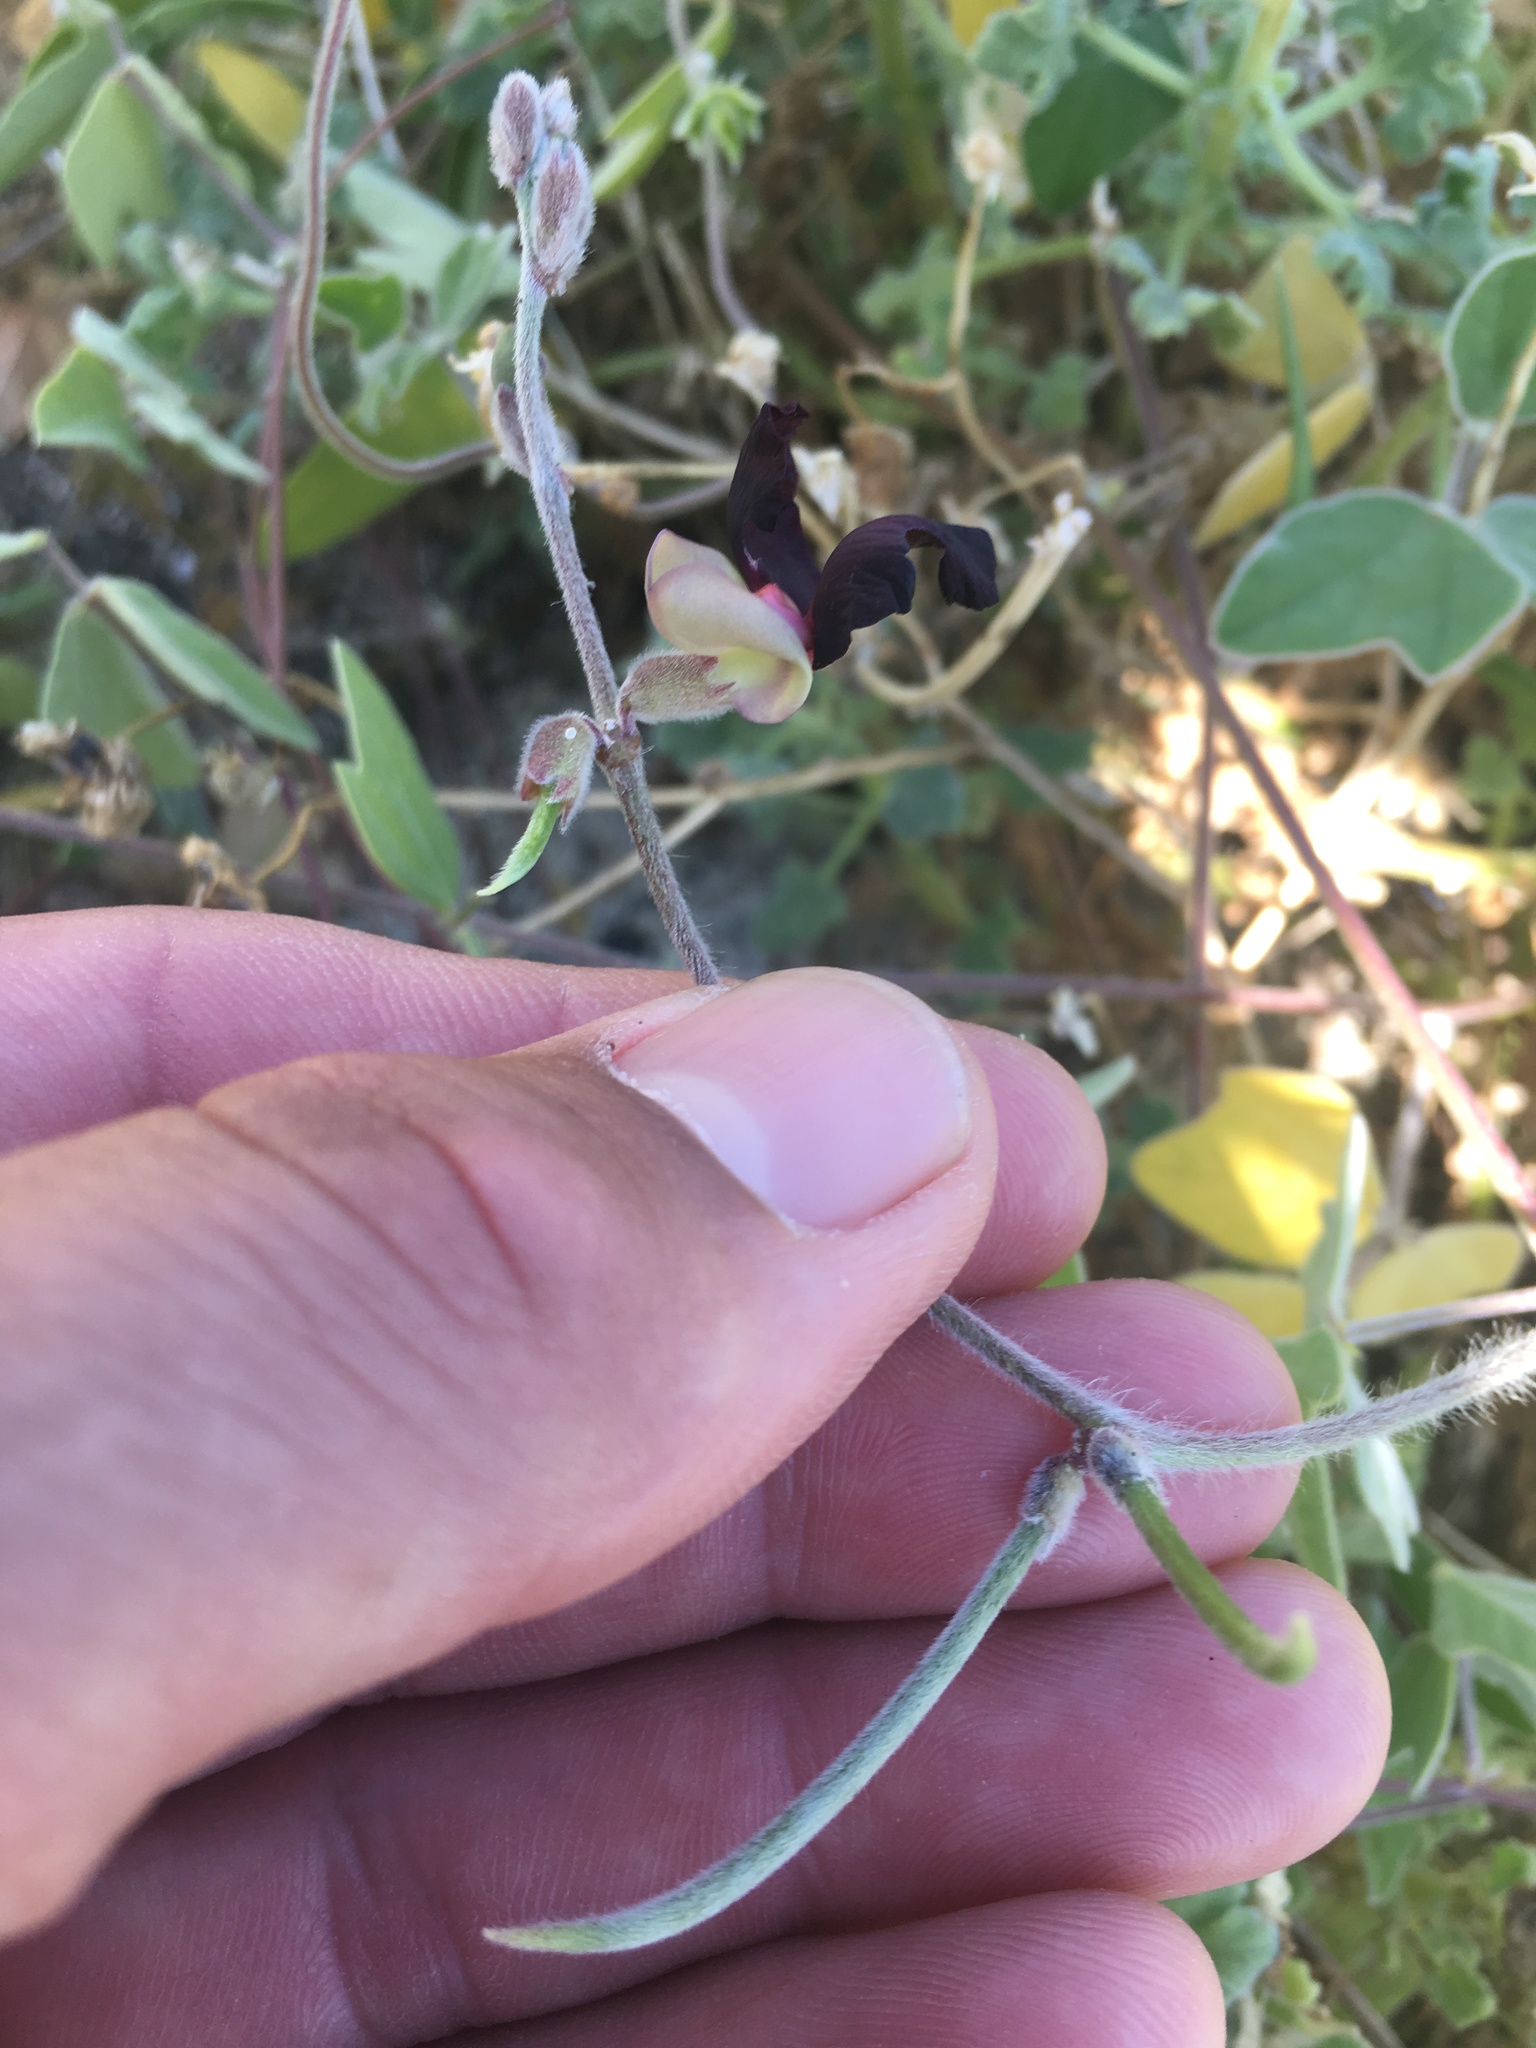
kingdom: Plantae
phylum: Tracheophyta
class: Magnoliopsida
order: Fabales
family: Fabaceae
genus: Macroptilium
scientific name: Macroptilium atropurpureum
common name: Purple bushbean
